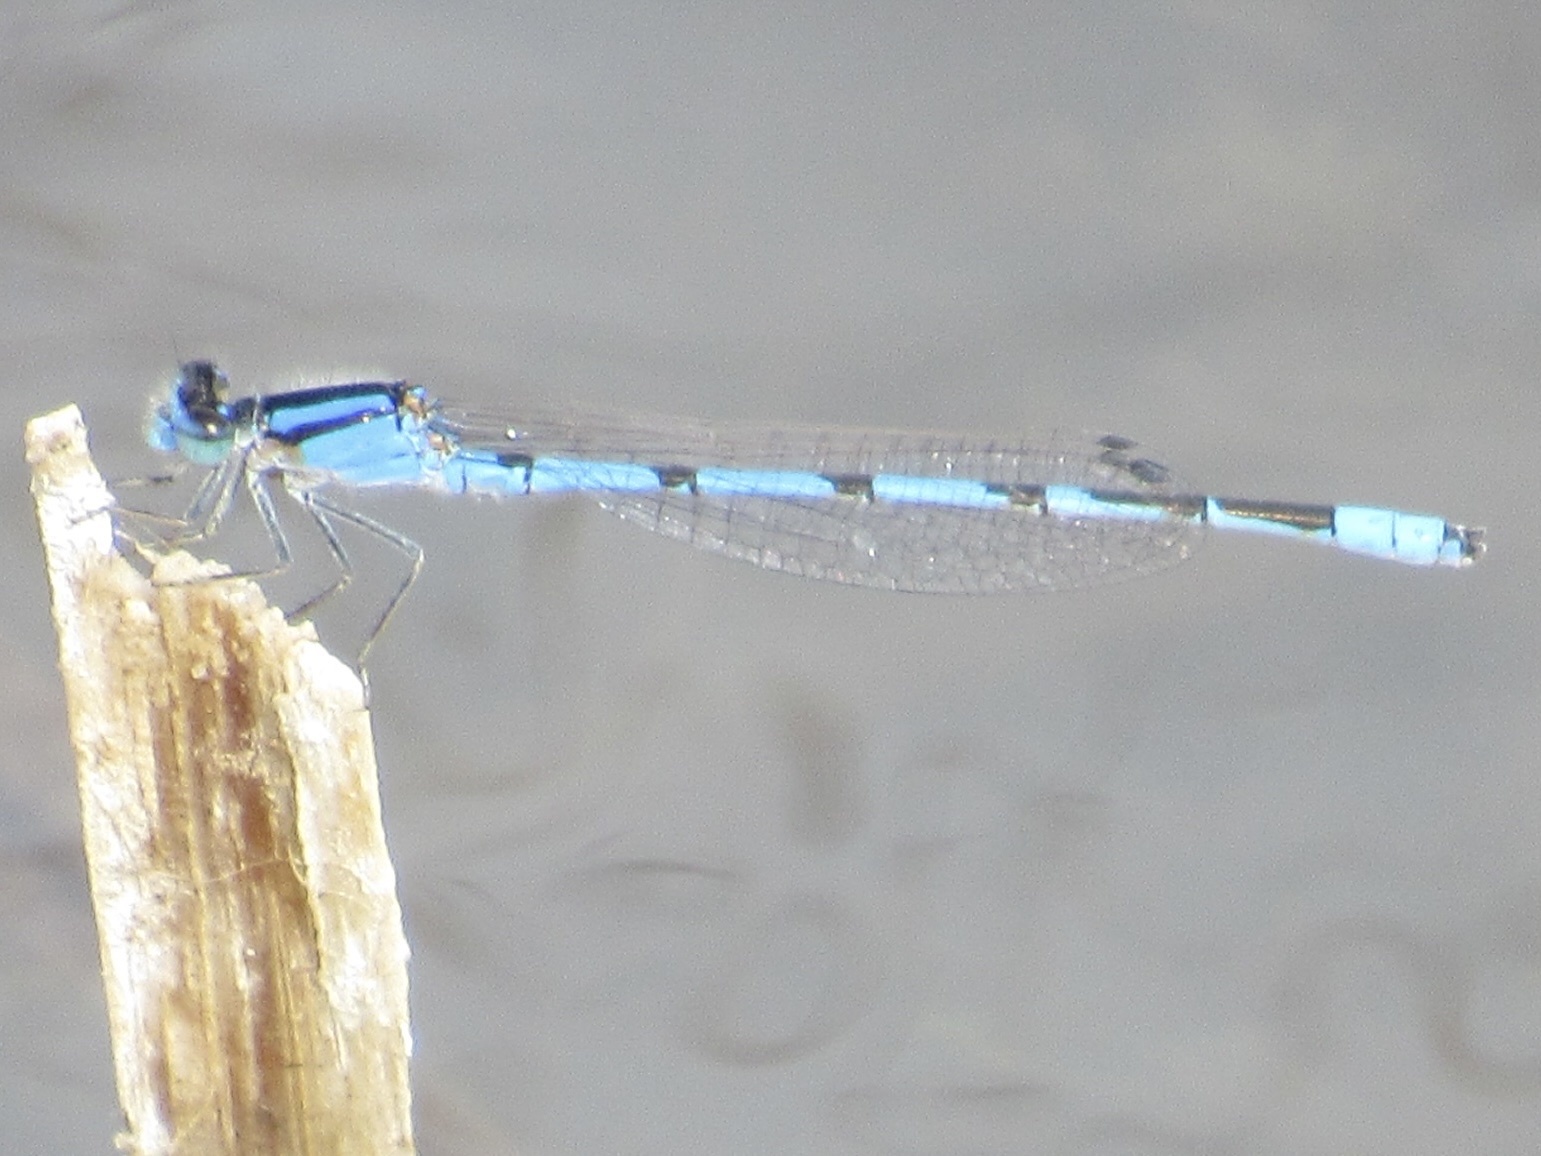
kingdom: Animalia
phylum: Arthropoda
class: Insecta
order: Odonata
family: Coenagrionidae
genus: Enallagma
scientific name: Enallagma civile
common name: Damselfly
